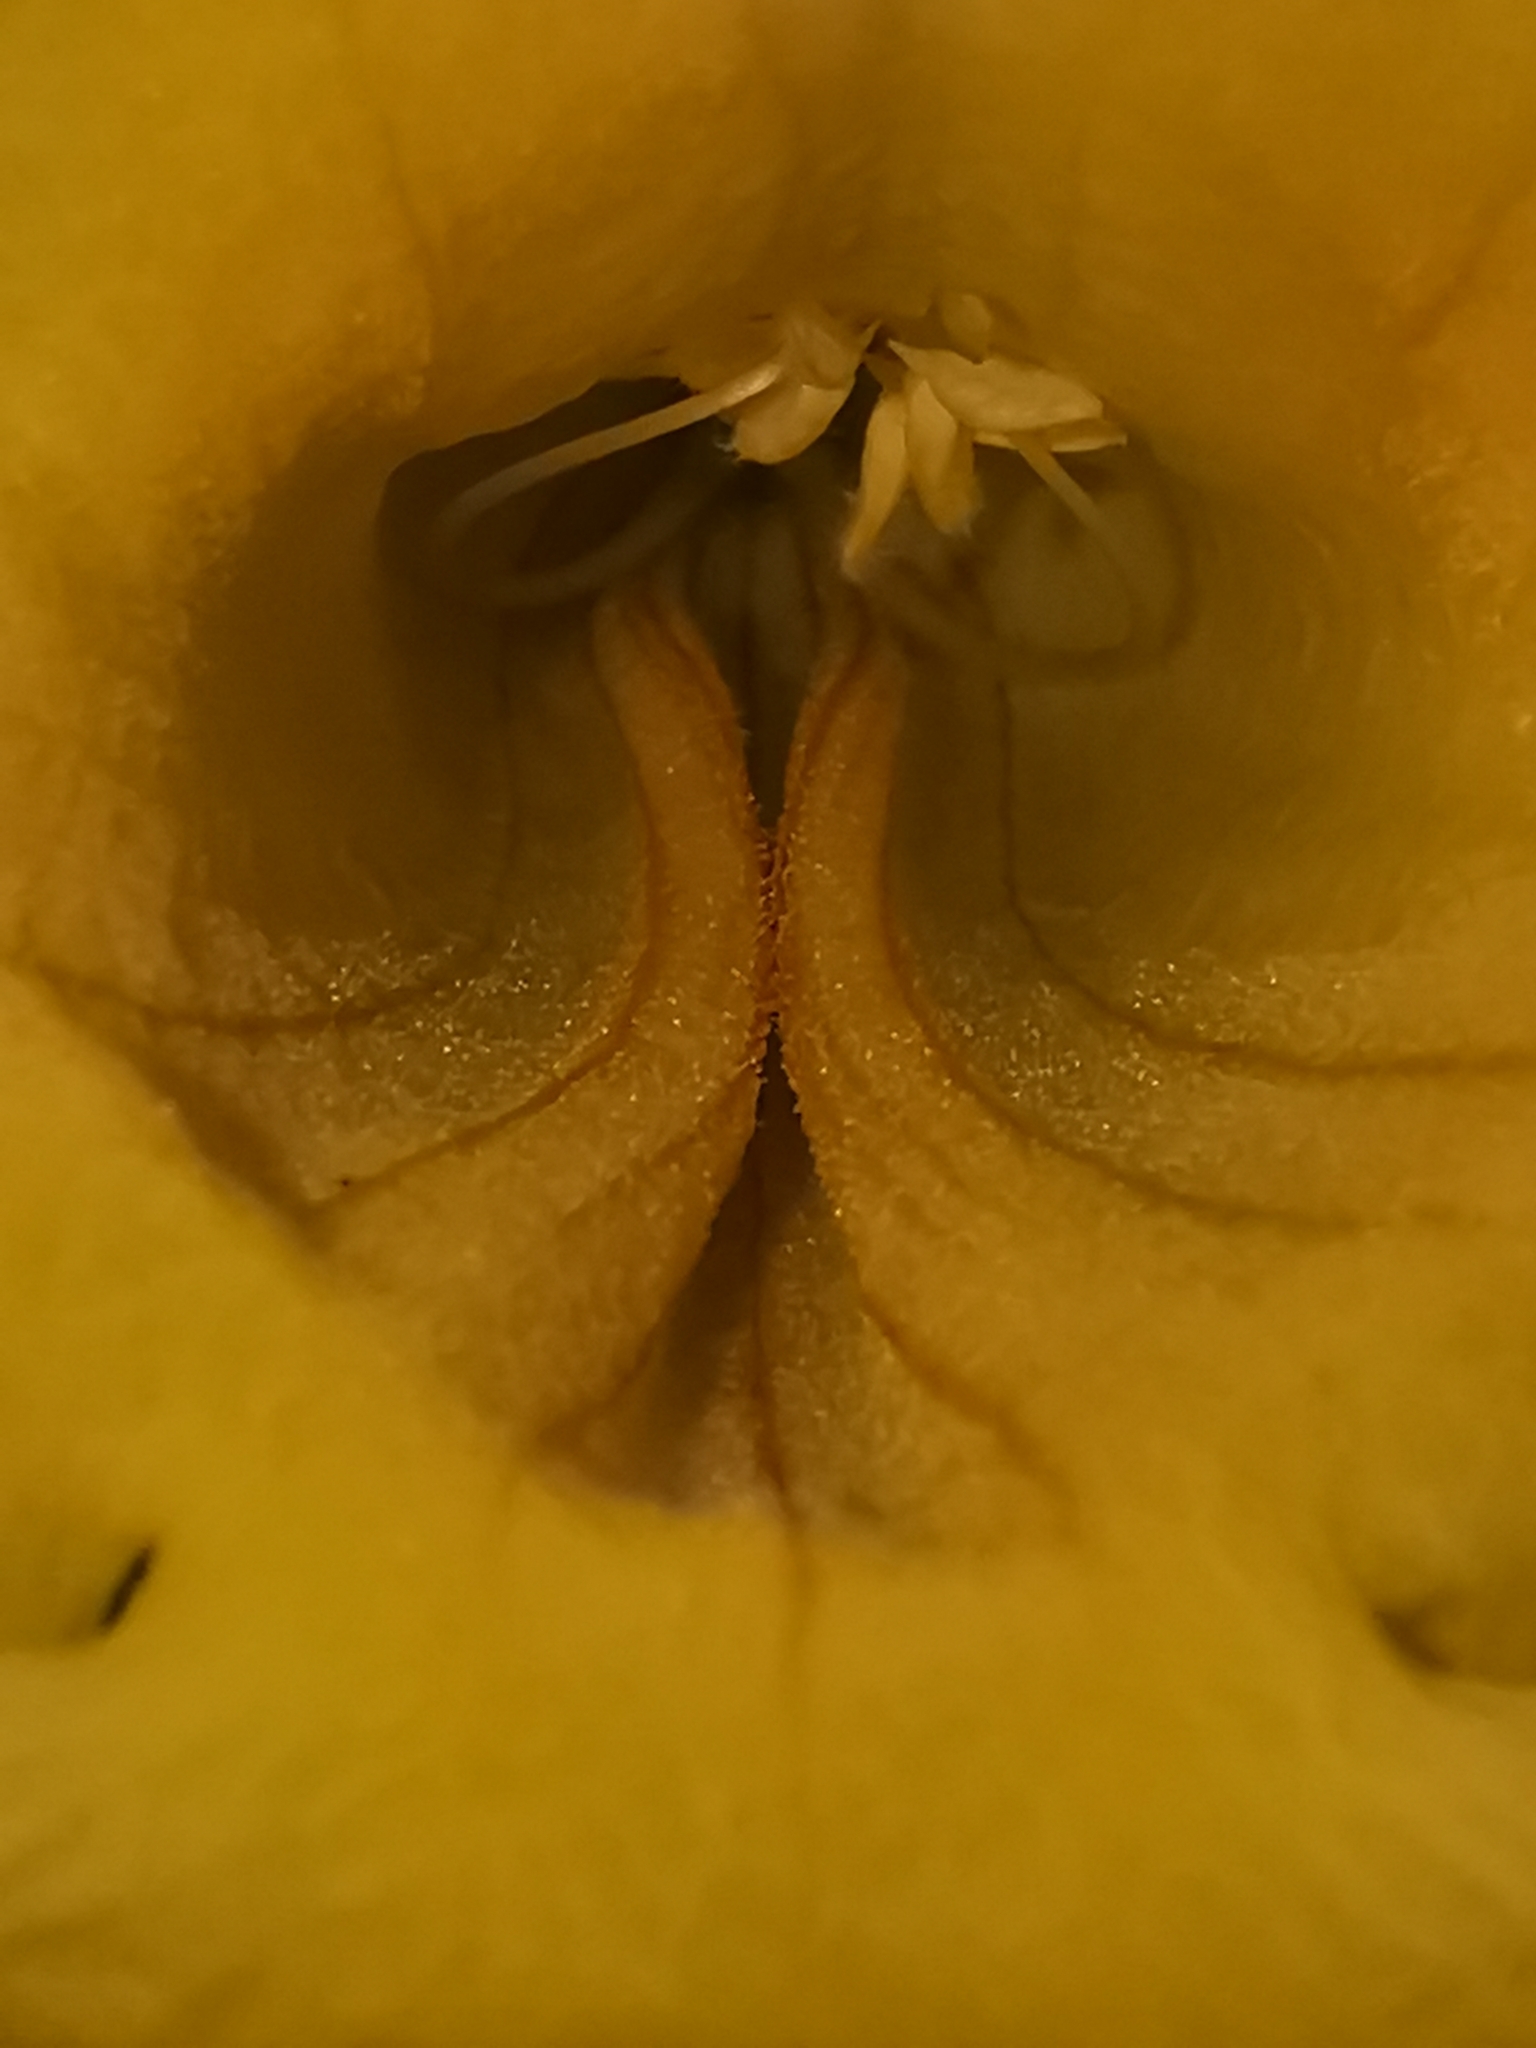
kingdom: Plantae
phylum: Tracheophyta
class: Magnoliopsida
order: Lamiales
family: Bignoniaceae
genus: Tecoma
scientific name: Tecoma stans
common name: Yellow trumpetbush
